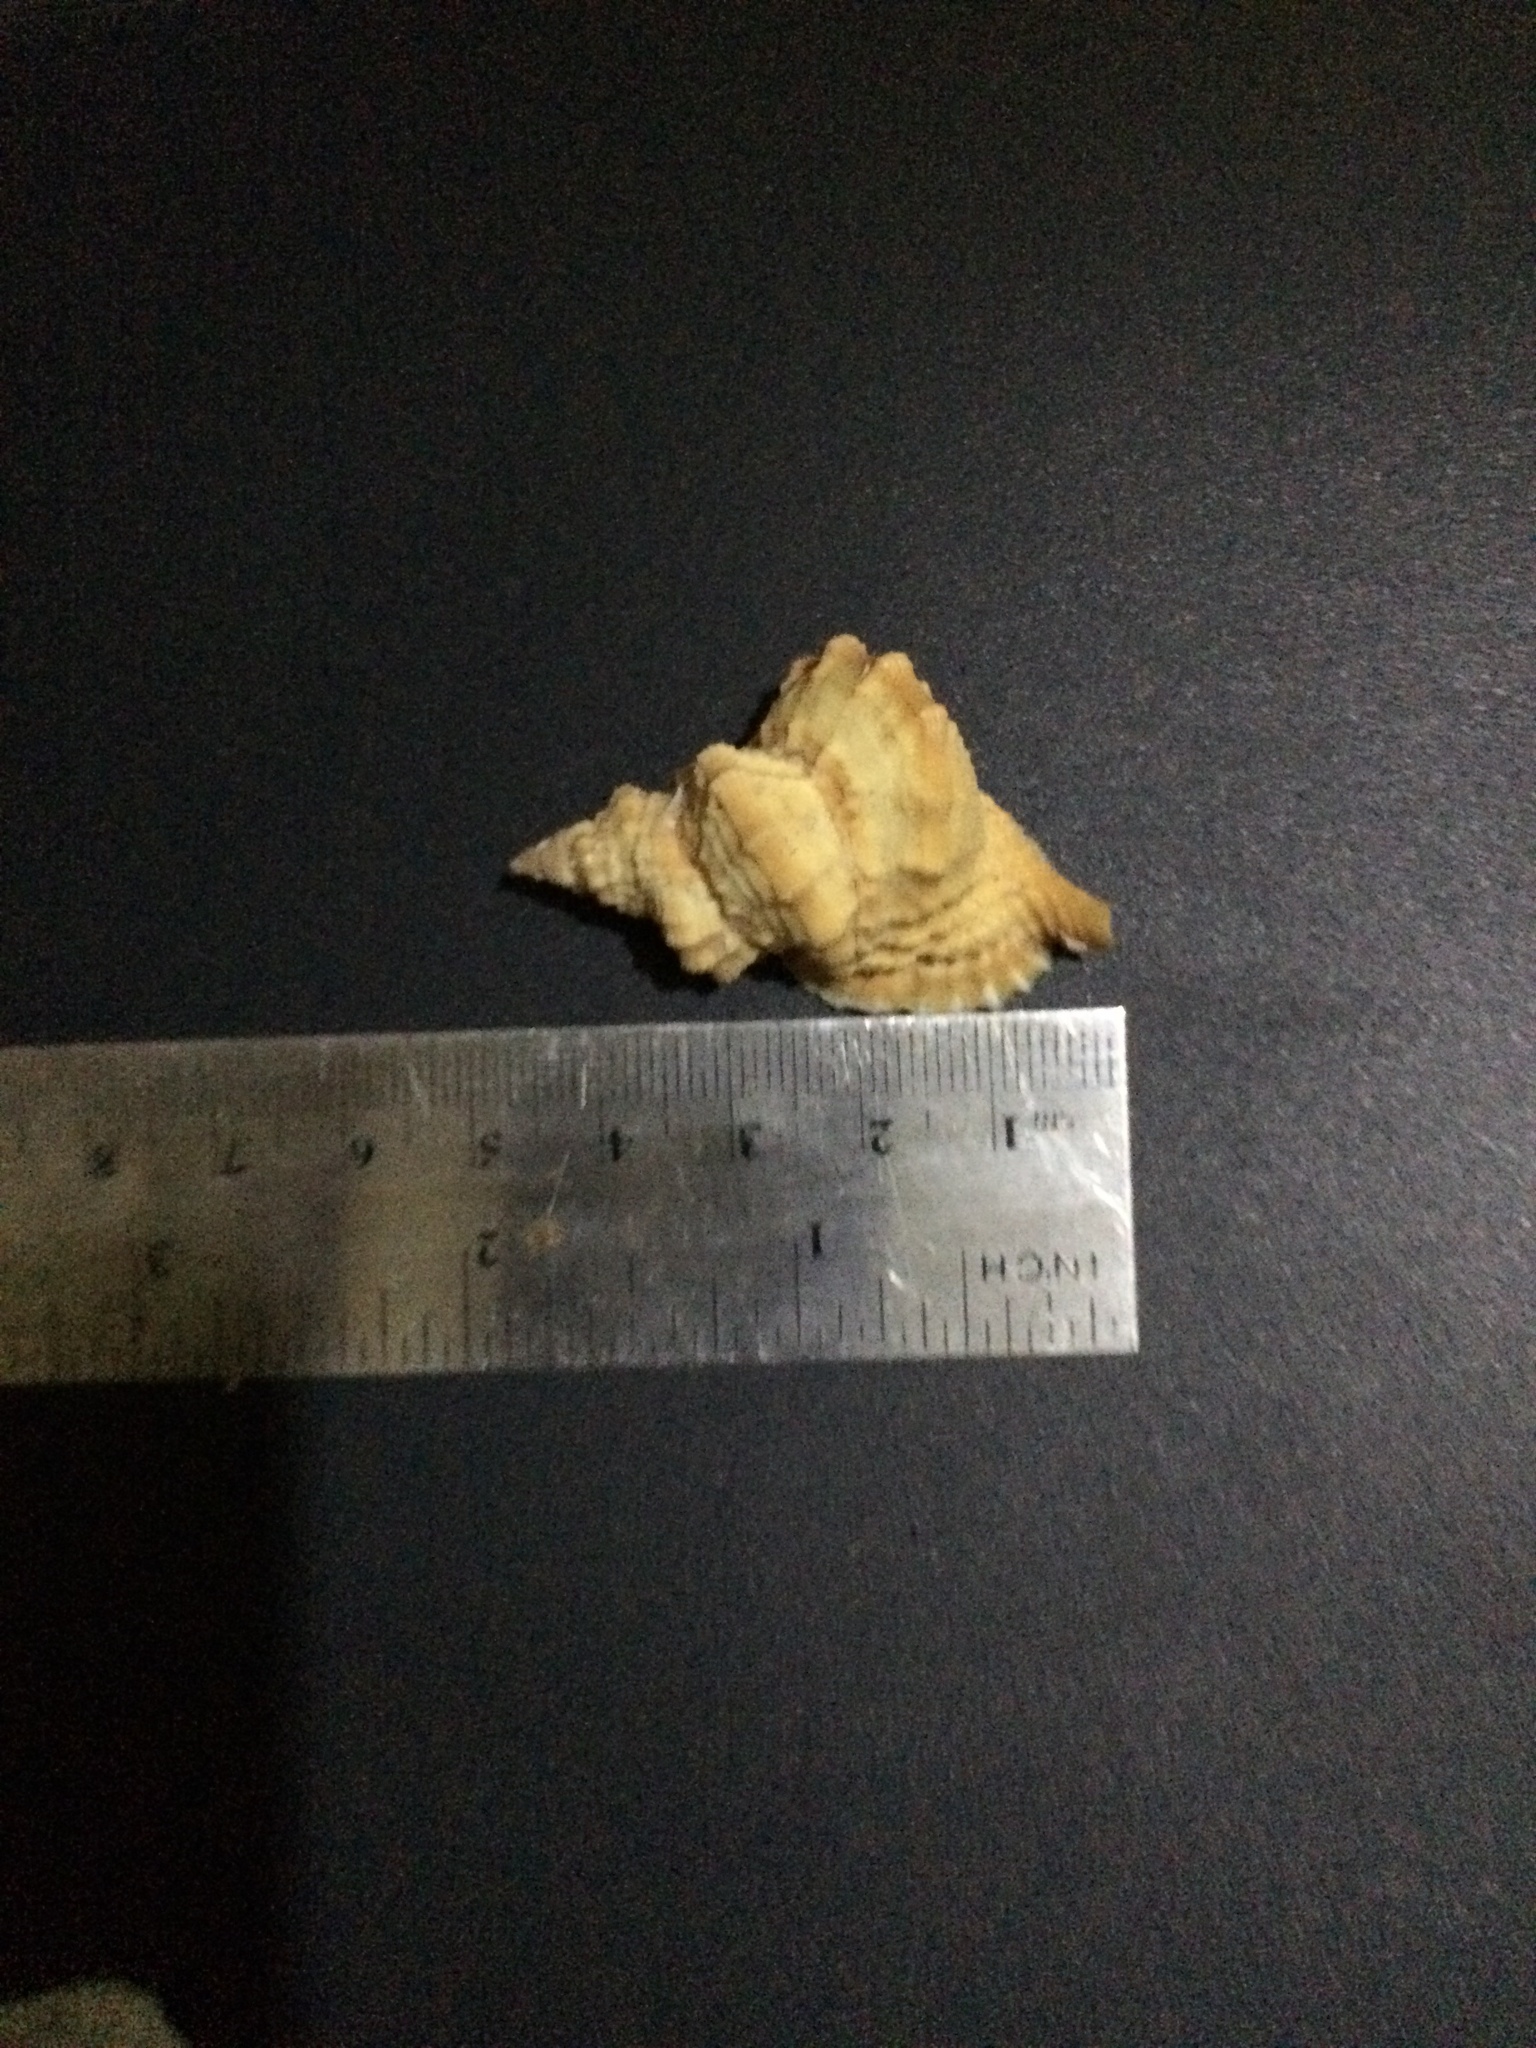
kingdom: Animalia
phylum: Mollusca
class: Gastropoda
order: Littorinimorpha
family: Personidae
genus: Distorsio
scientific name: Distorsio kurzi
